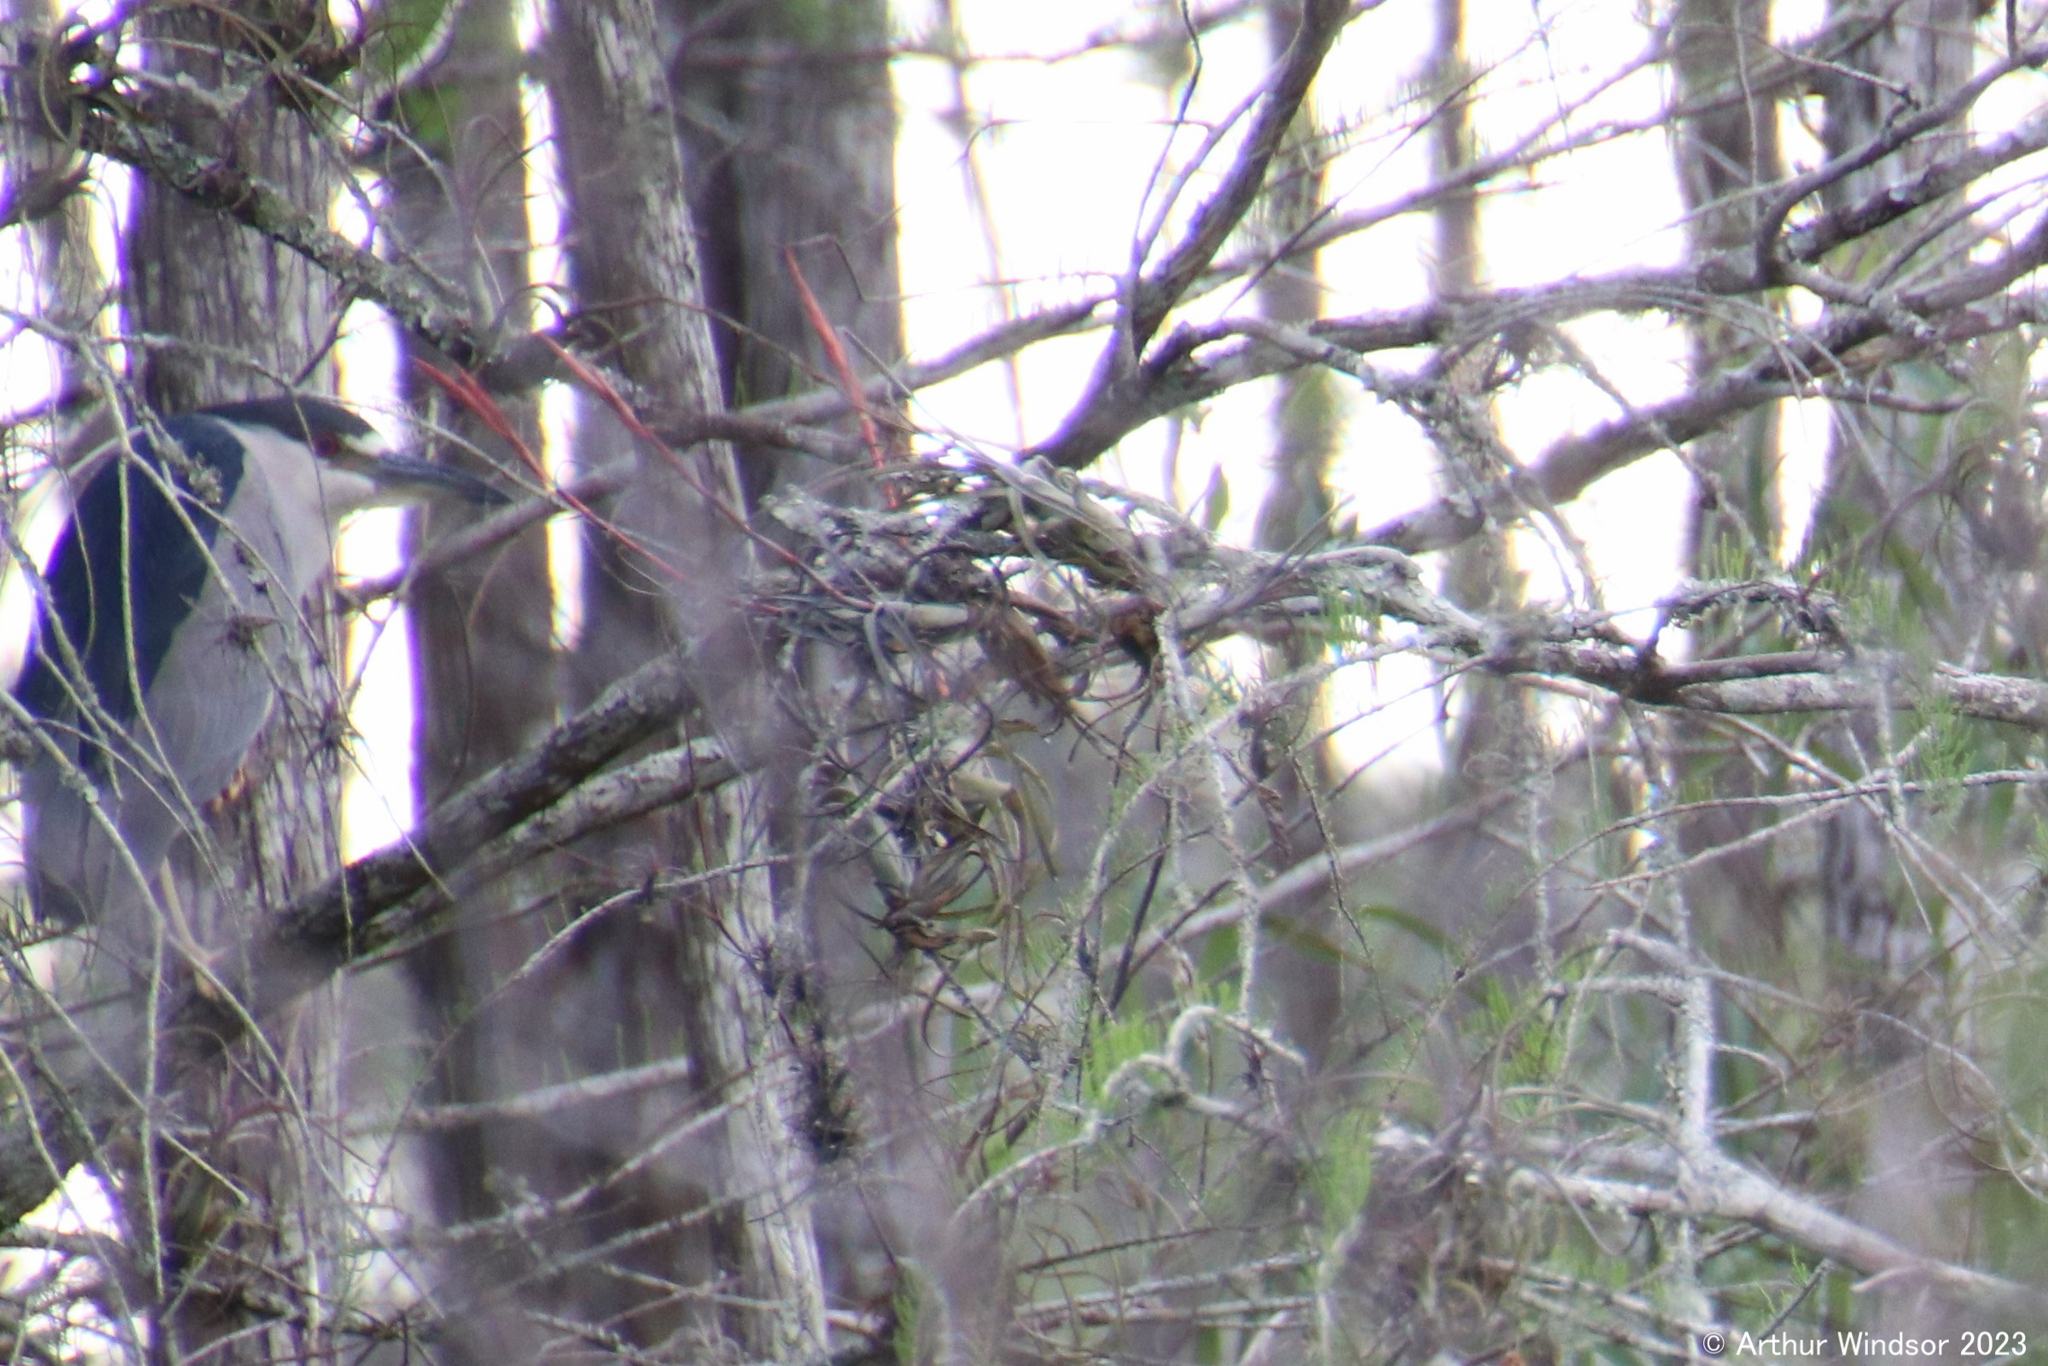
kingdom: Animalia
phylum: Chordata
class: Aves
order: Pelecaniformes
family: Ardeidae
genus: Nycticorax
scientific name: Nycticorax nycticorax
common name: Black-crowned night heron
